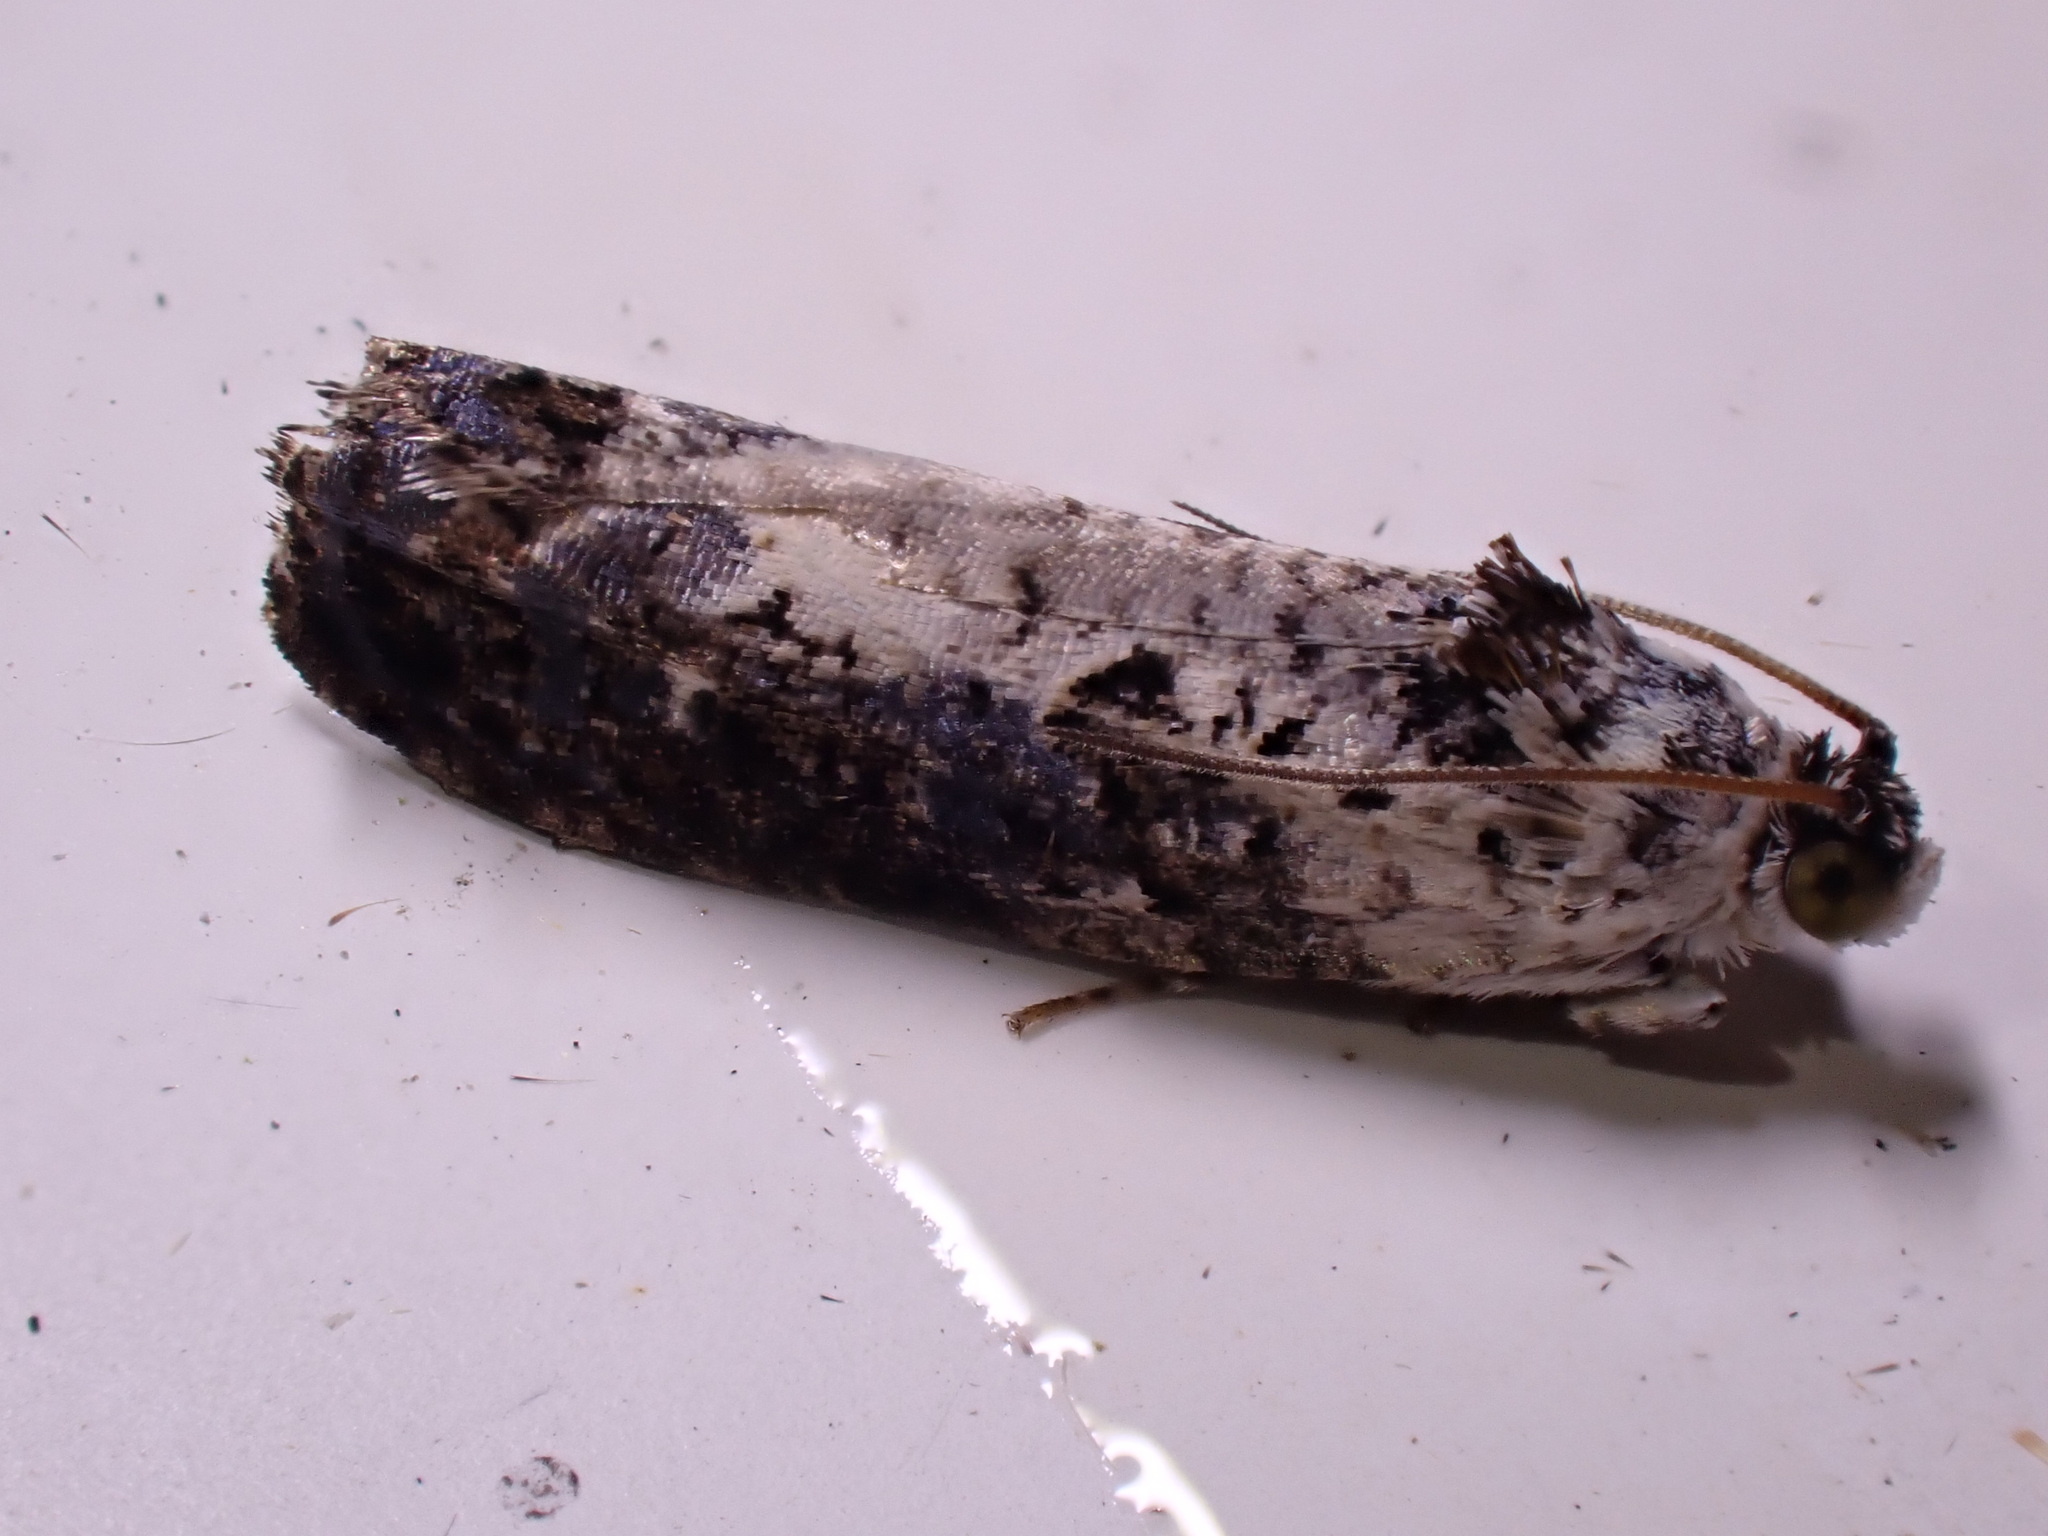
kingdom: Animalia
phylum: Arthropoda
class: Insecta
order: Lepidoptera
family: Tortricidae
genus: Hedya
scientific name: Hedya salicella
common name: Large tortricid moth
